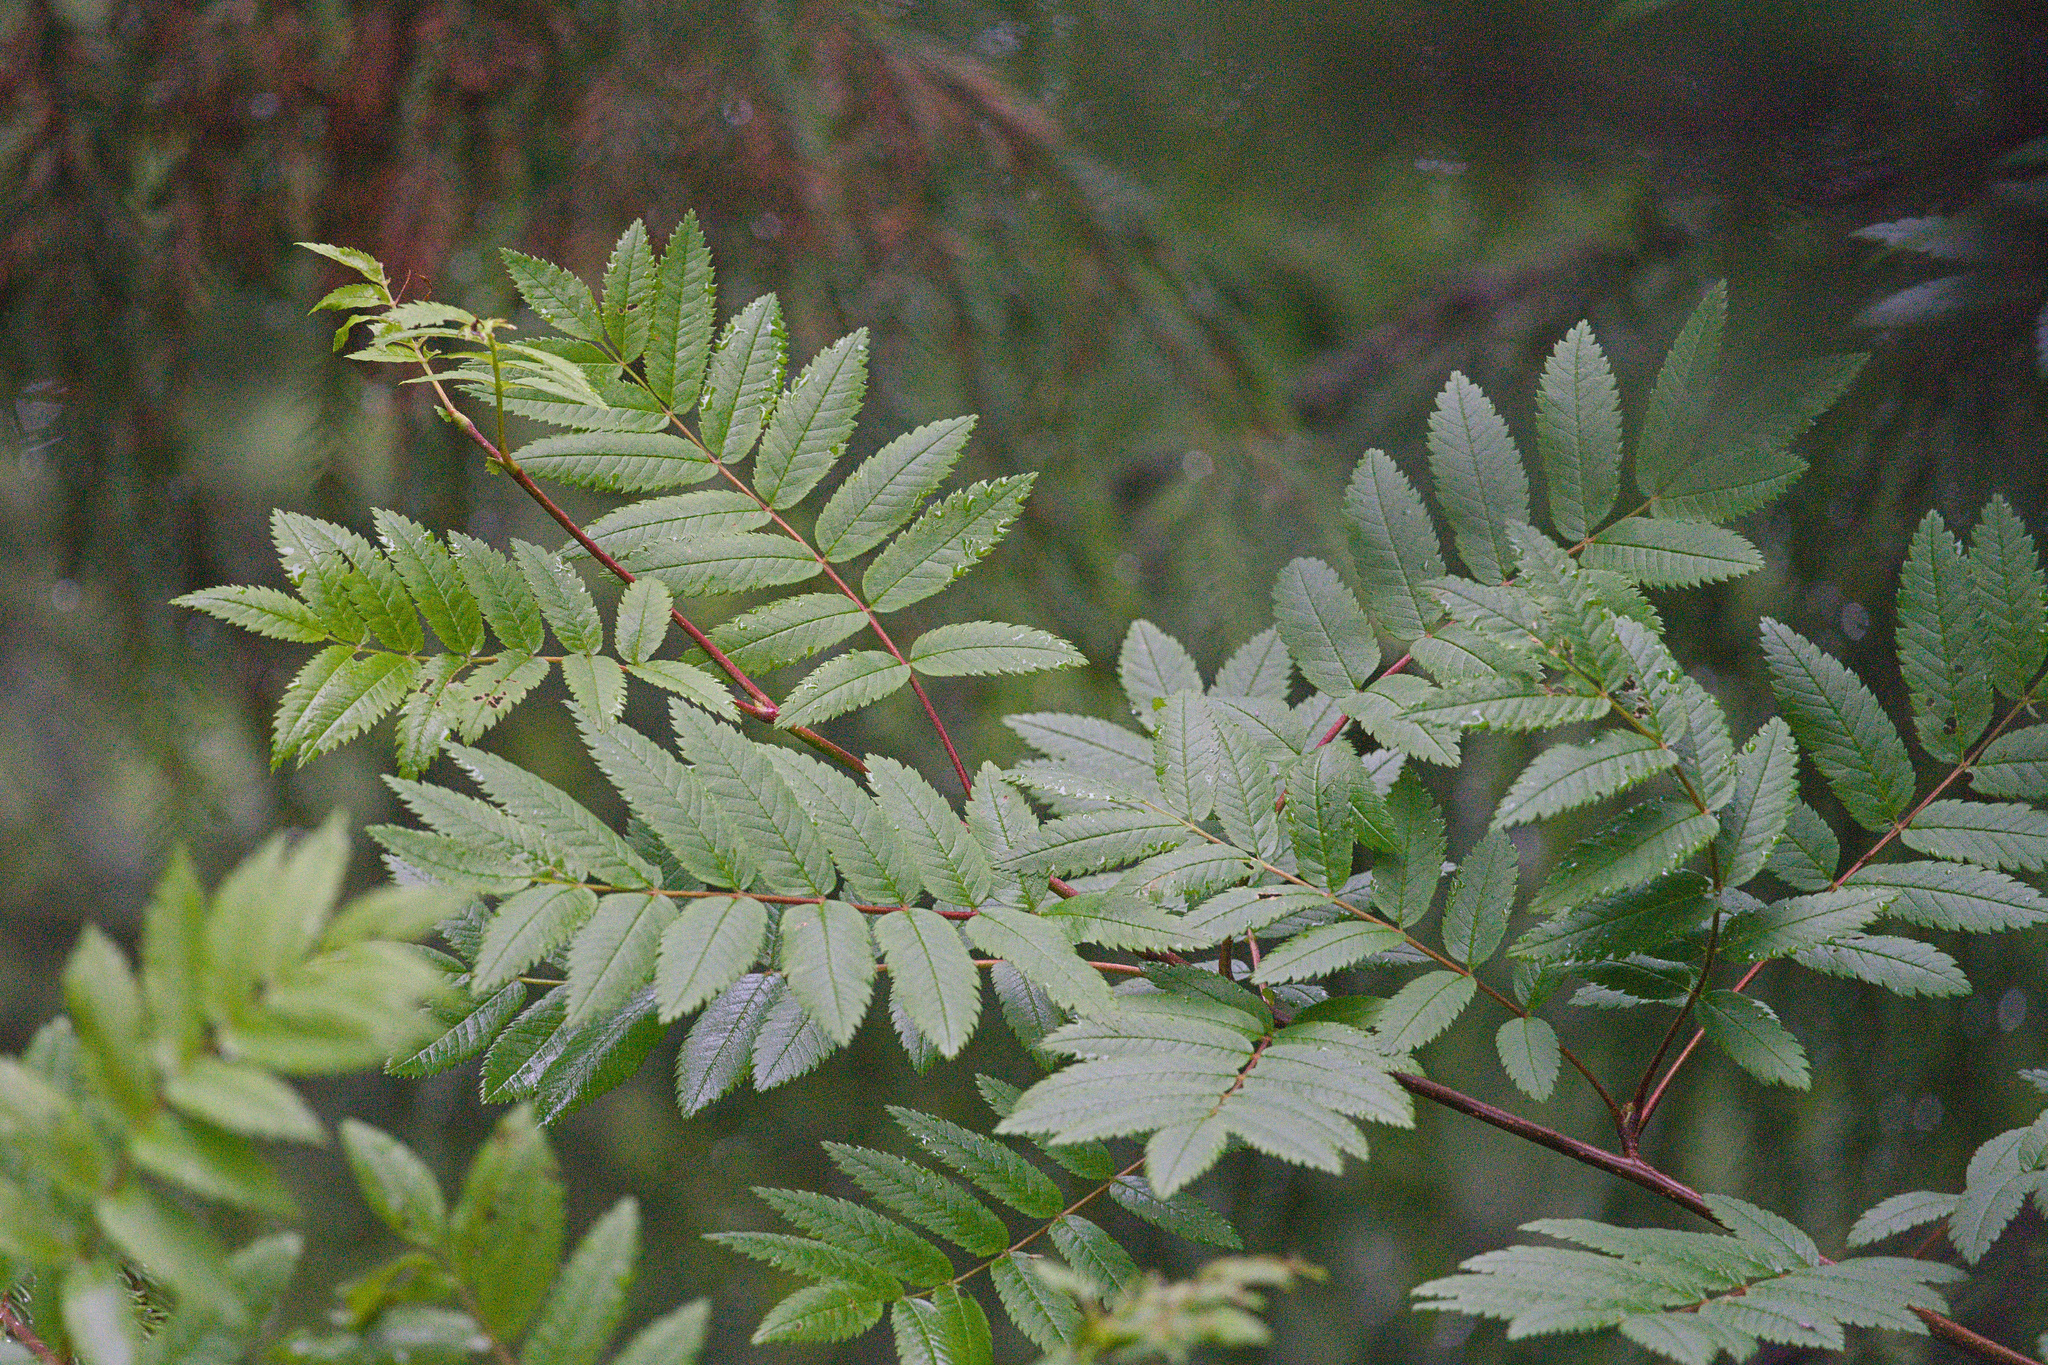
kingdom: Plantae
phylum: Tracheophyta
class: Magnoliopsida
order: Rosales
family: Rosaceae
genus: Sorbus
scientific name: Sorbus aucuparia
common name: Rowan
